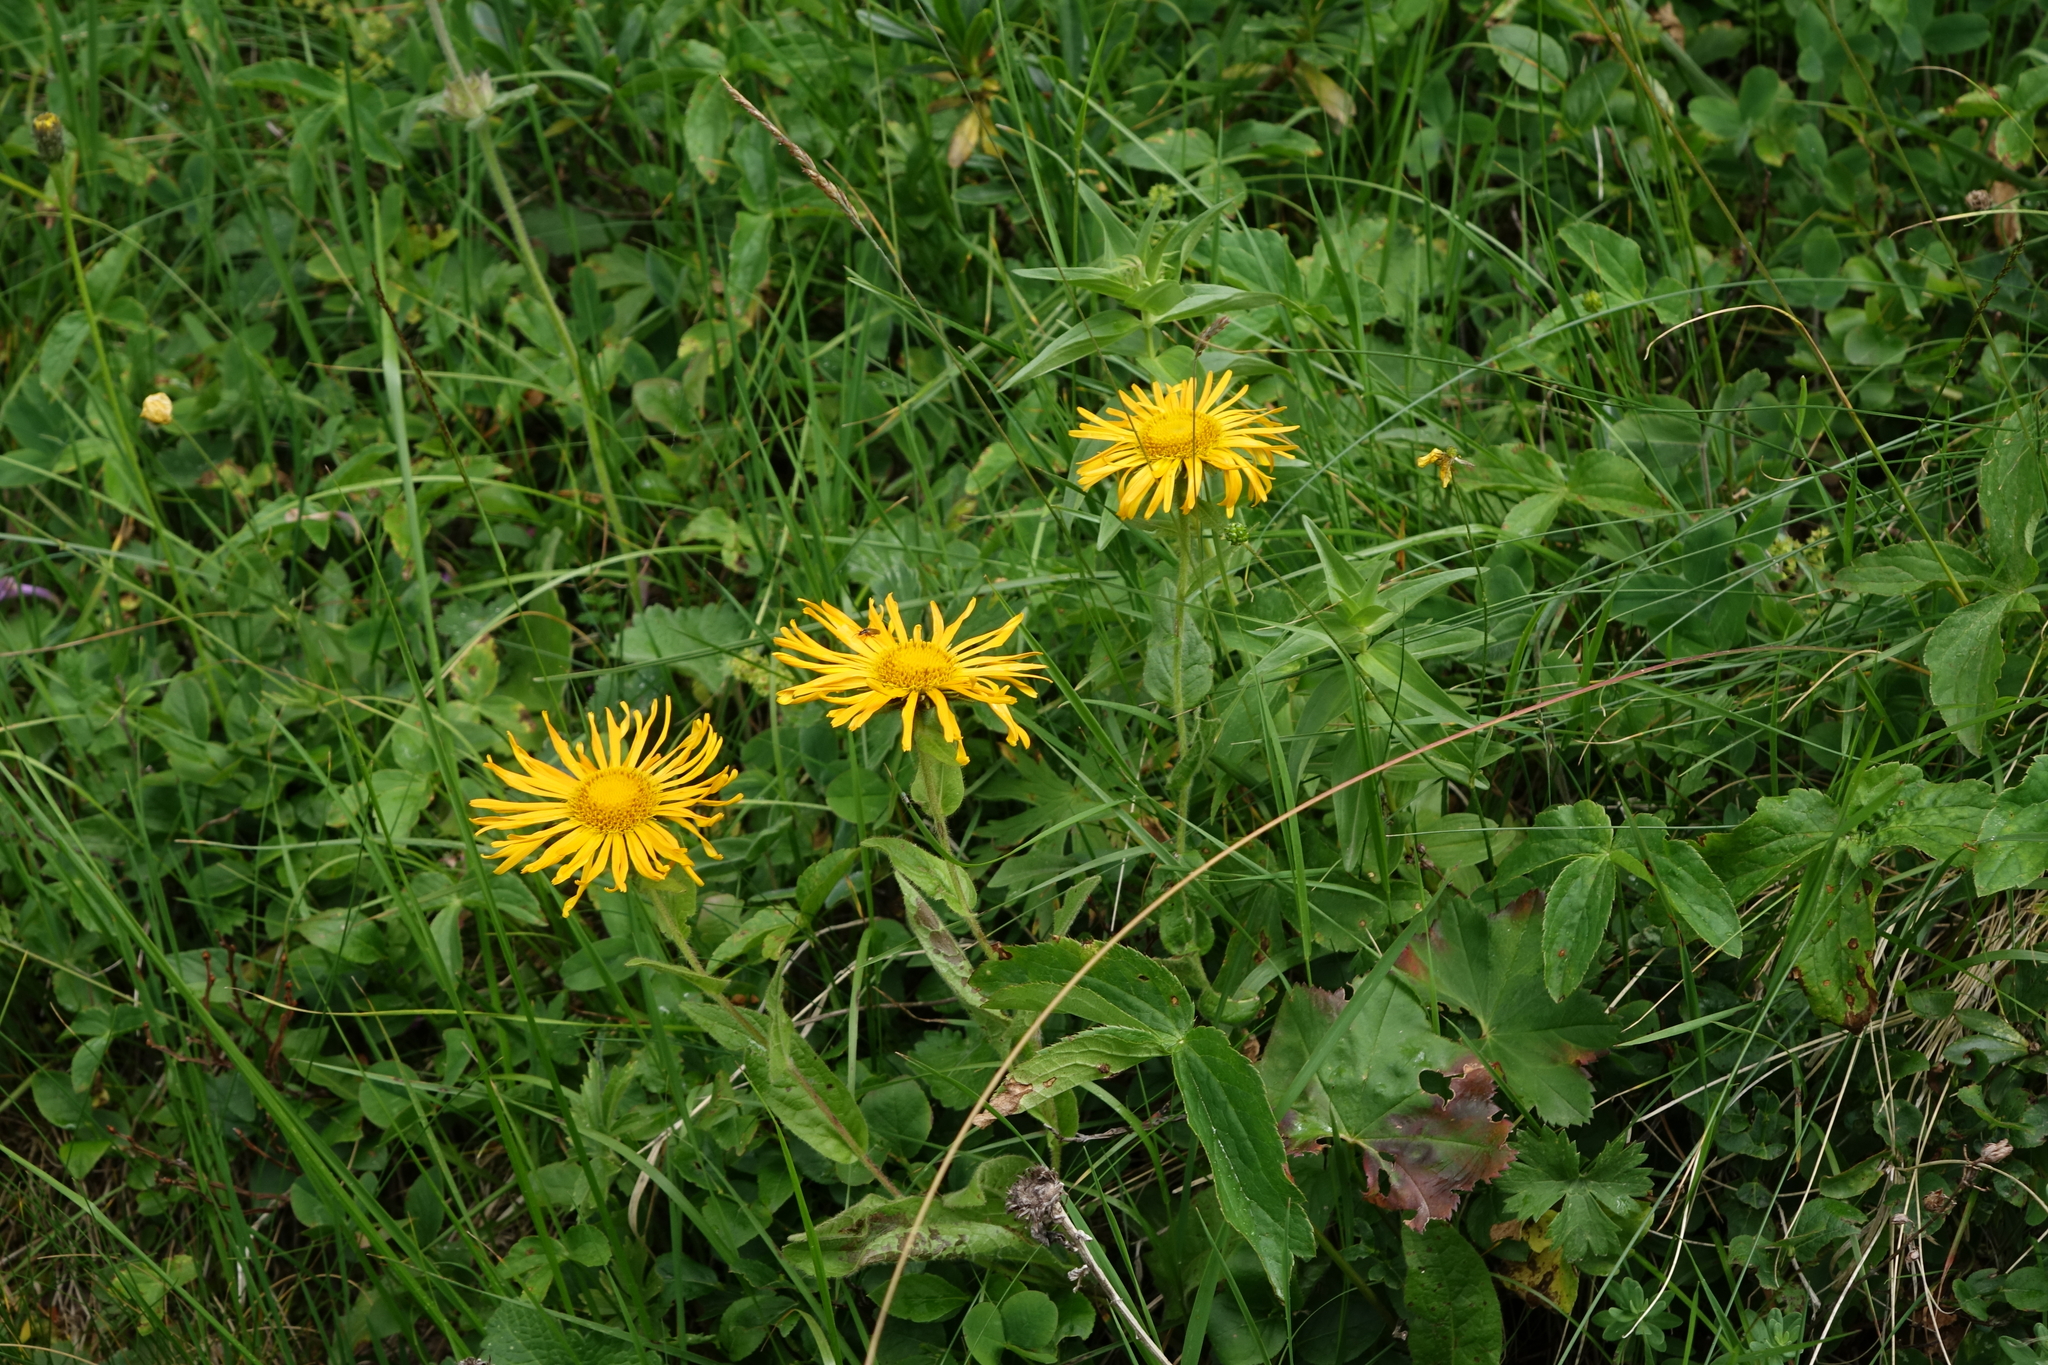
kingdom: Plantae
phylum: Tracheophyta
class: Magnoliopsida
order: Asterales
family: Asteraceae
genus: Pentanema
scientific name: Pentanema orientale
